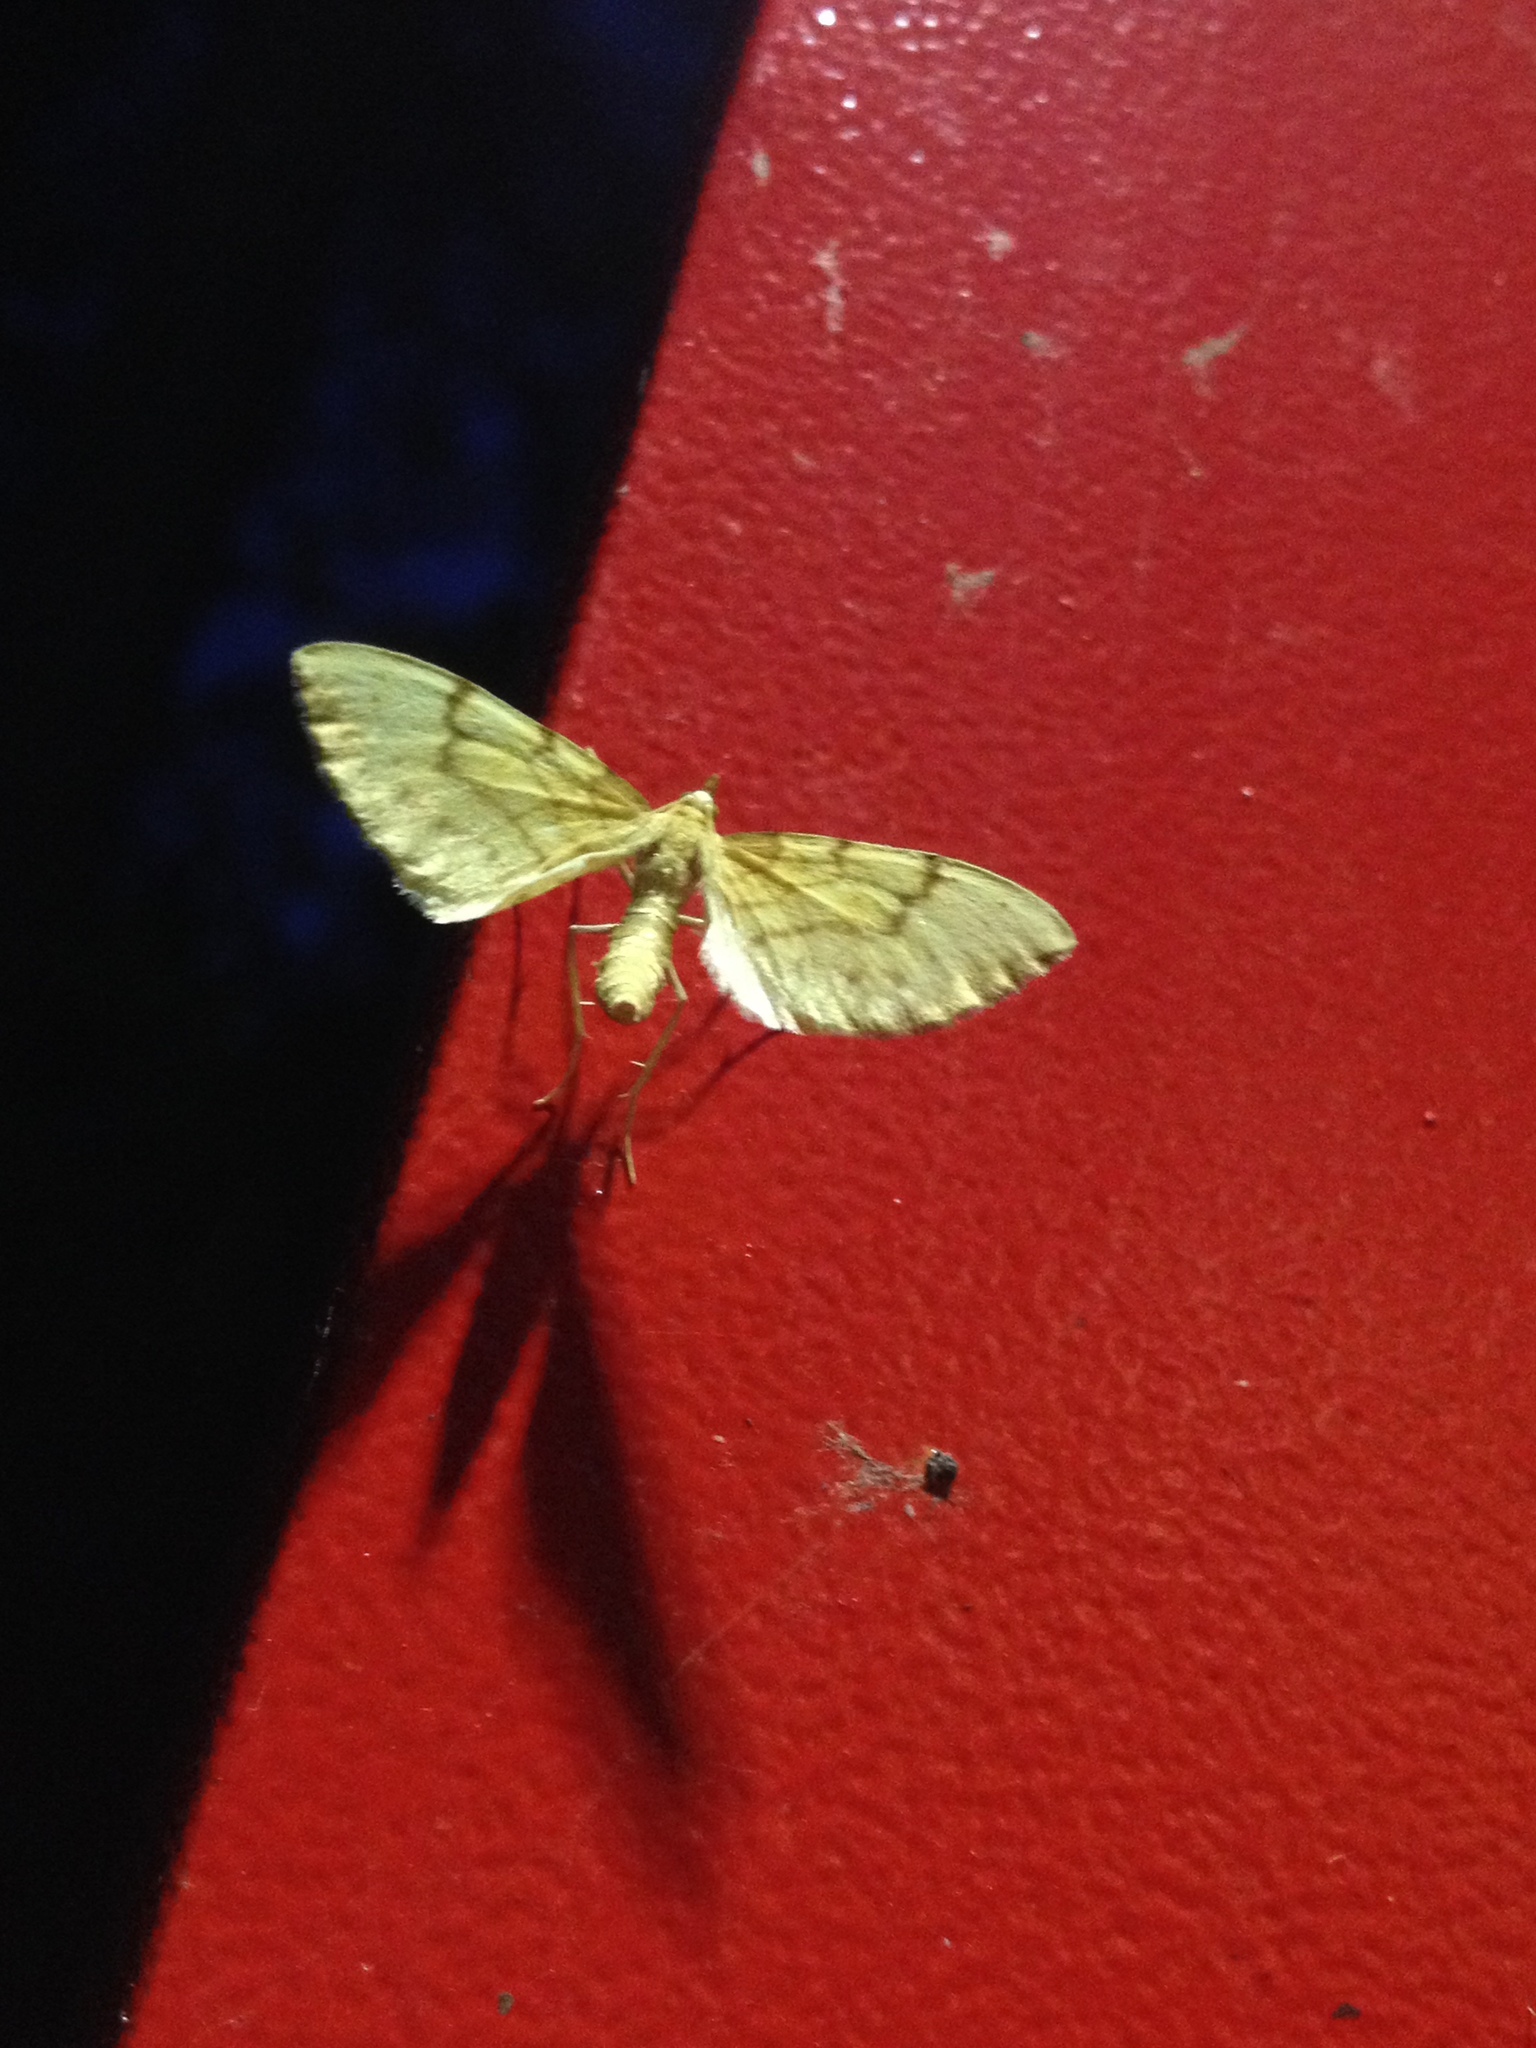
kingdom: Animalia
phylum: Arthropoda
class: Insecta
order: Lepidoptera
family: Geometridae
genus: Eulithis
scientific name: Eulithis pyraliata
